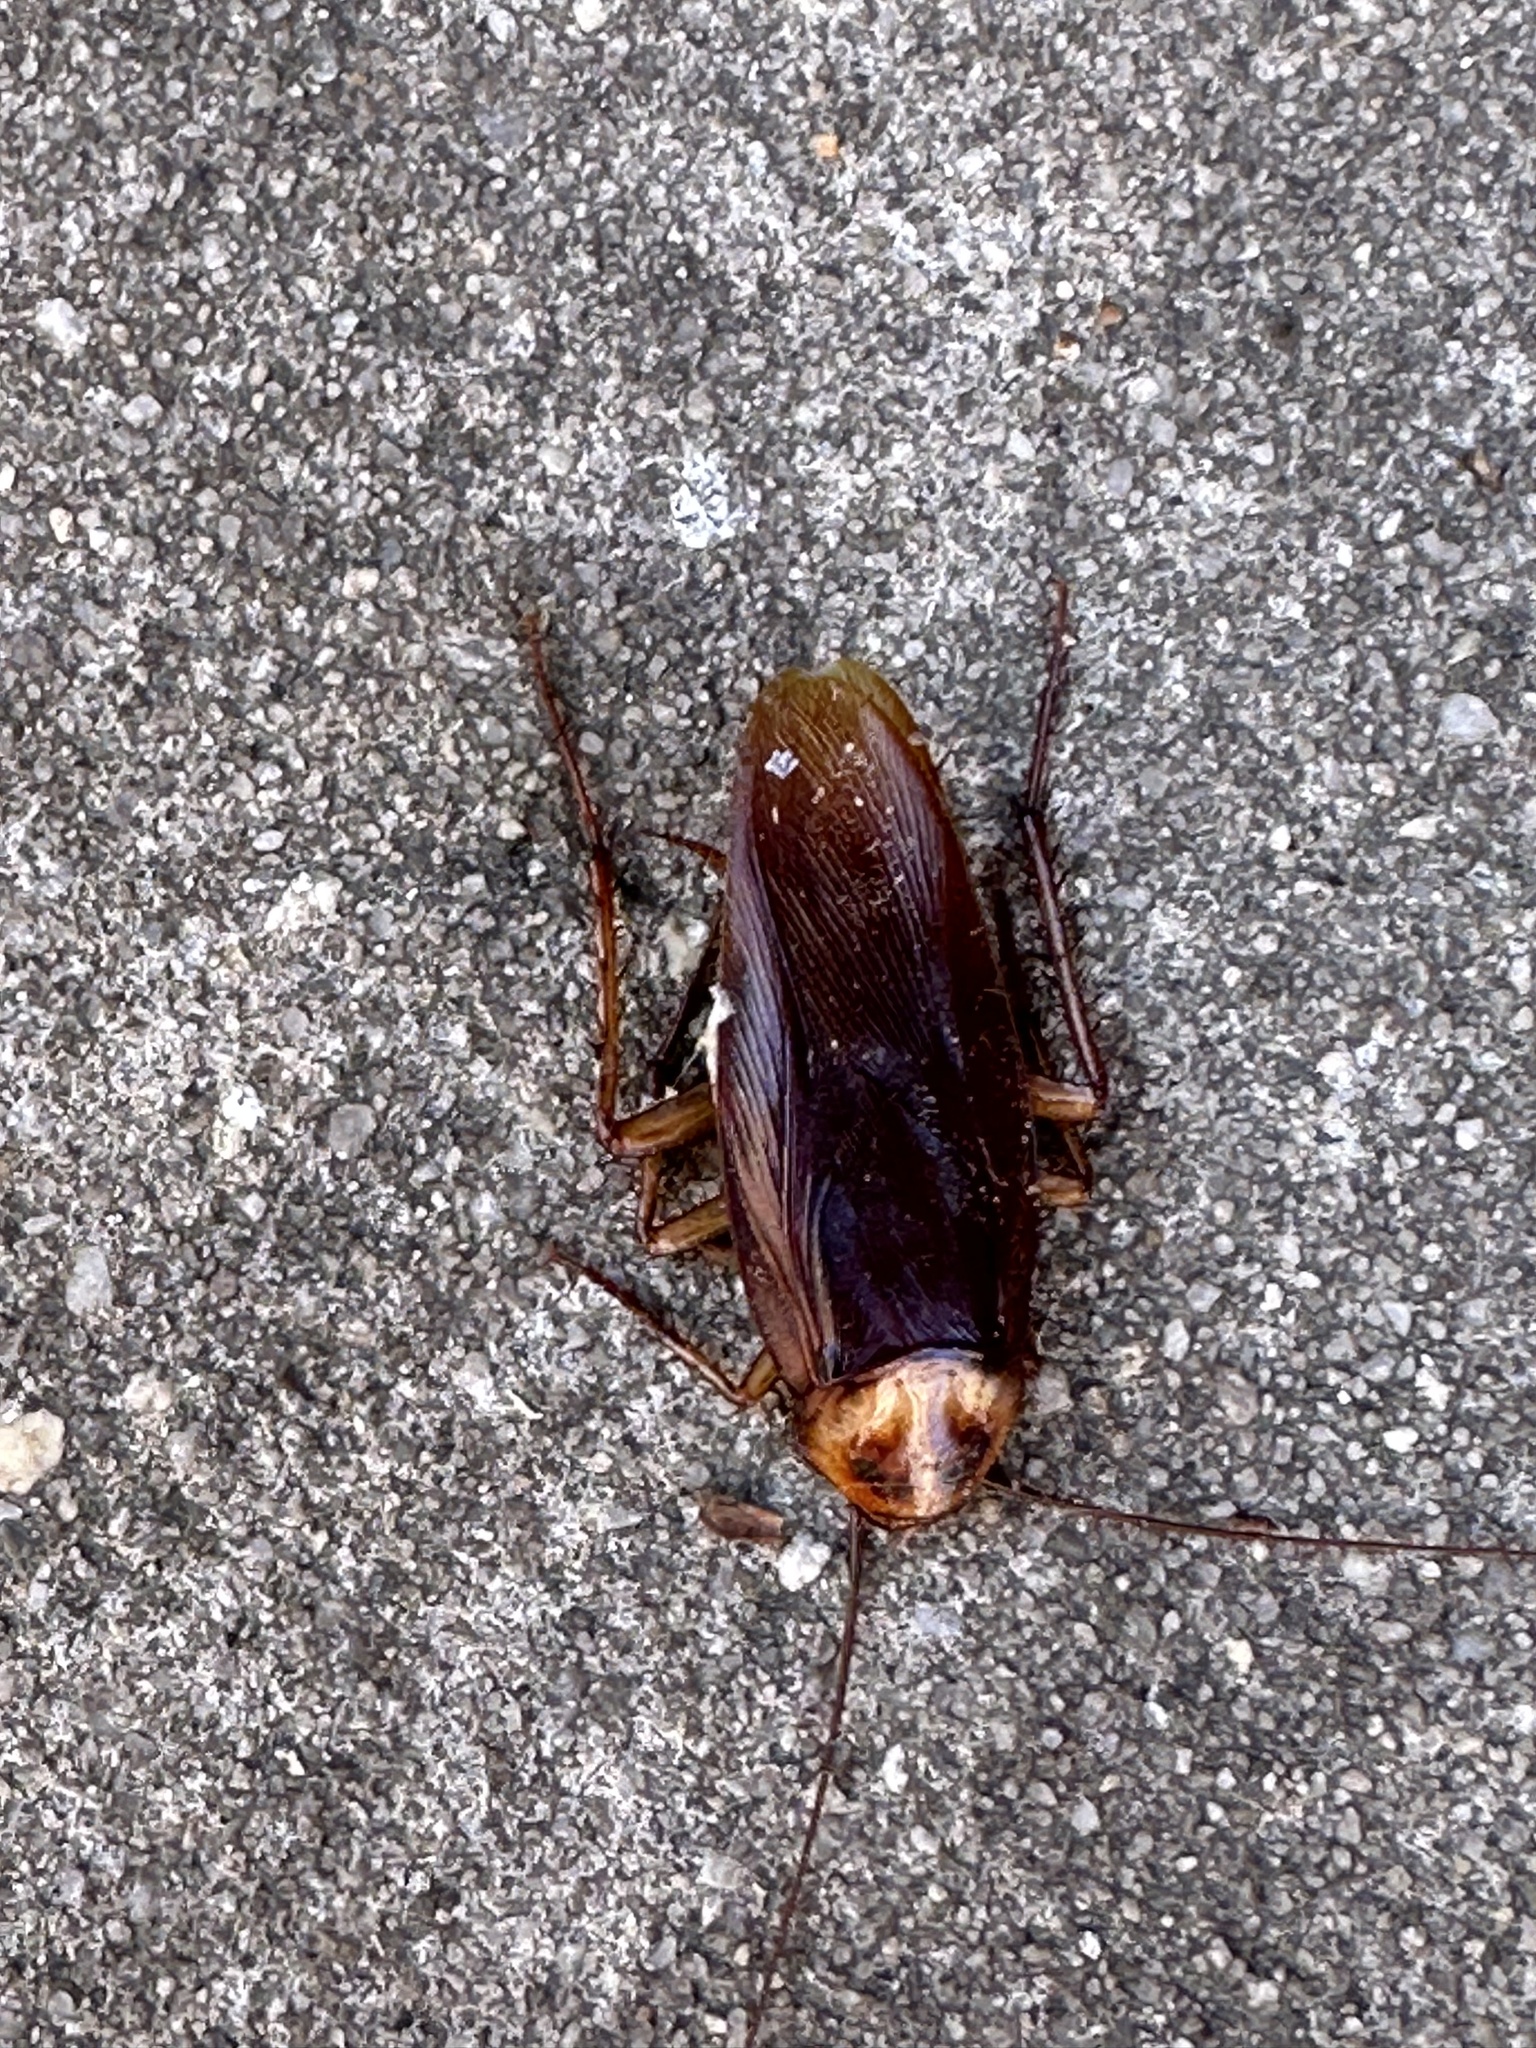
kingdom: Animalia
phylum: Arthropoda
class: Insecta
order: Blattodea
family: Blattidae
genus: Periplaneta
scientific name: Periplaneta americana
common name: American cockroach
